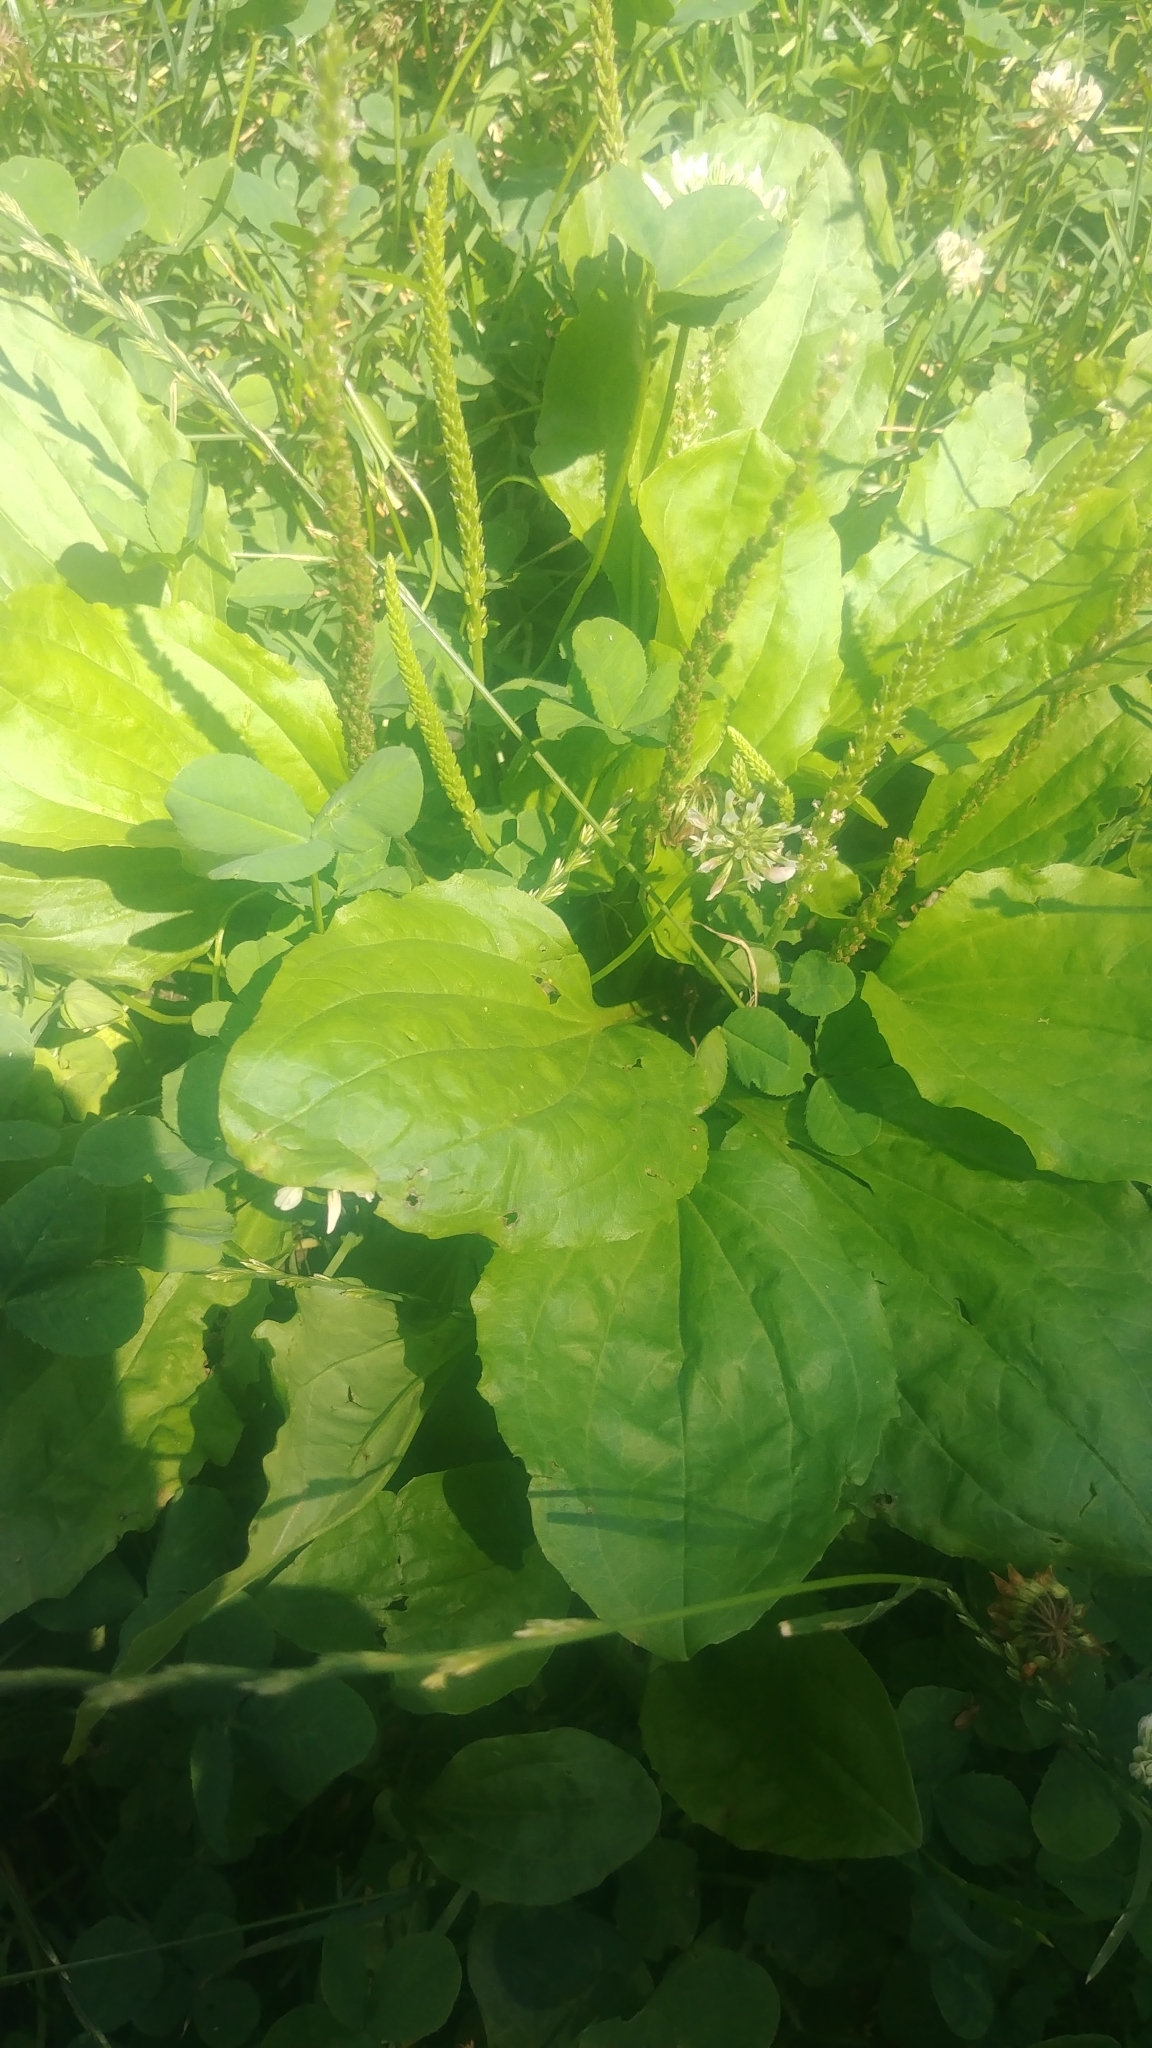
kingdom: Plantae
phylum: Tracheophyta
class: Magnoliopsida
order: Lamiales
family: Plantaginaceae
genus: Plantago
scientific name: Plantago major
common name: Common plantain
